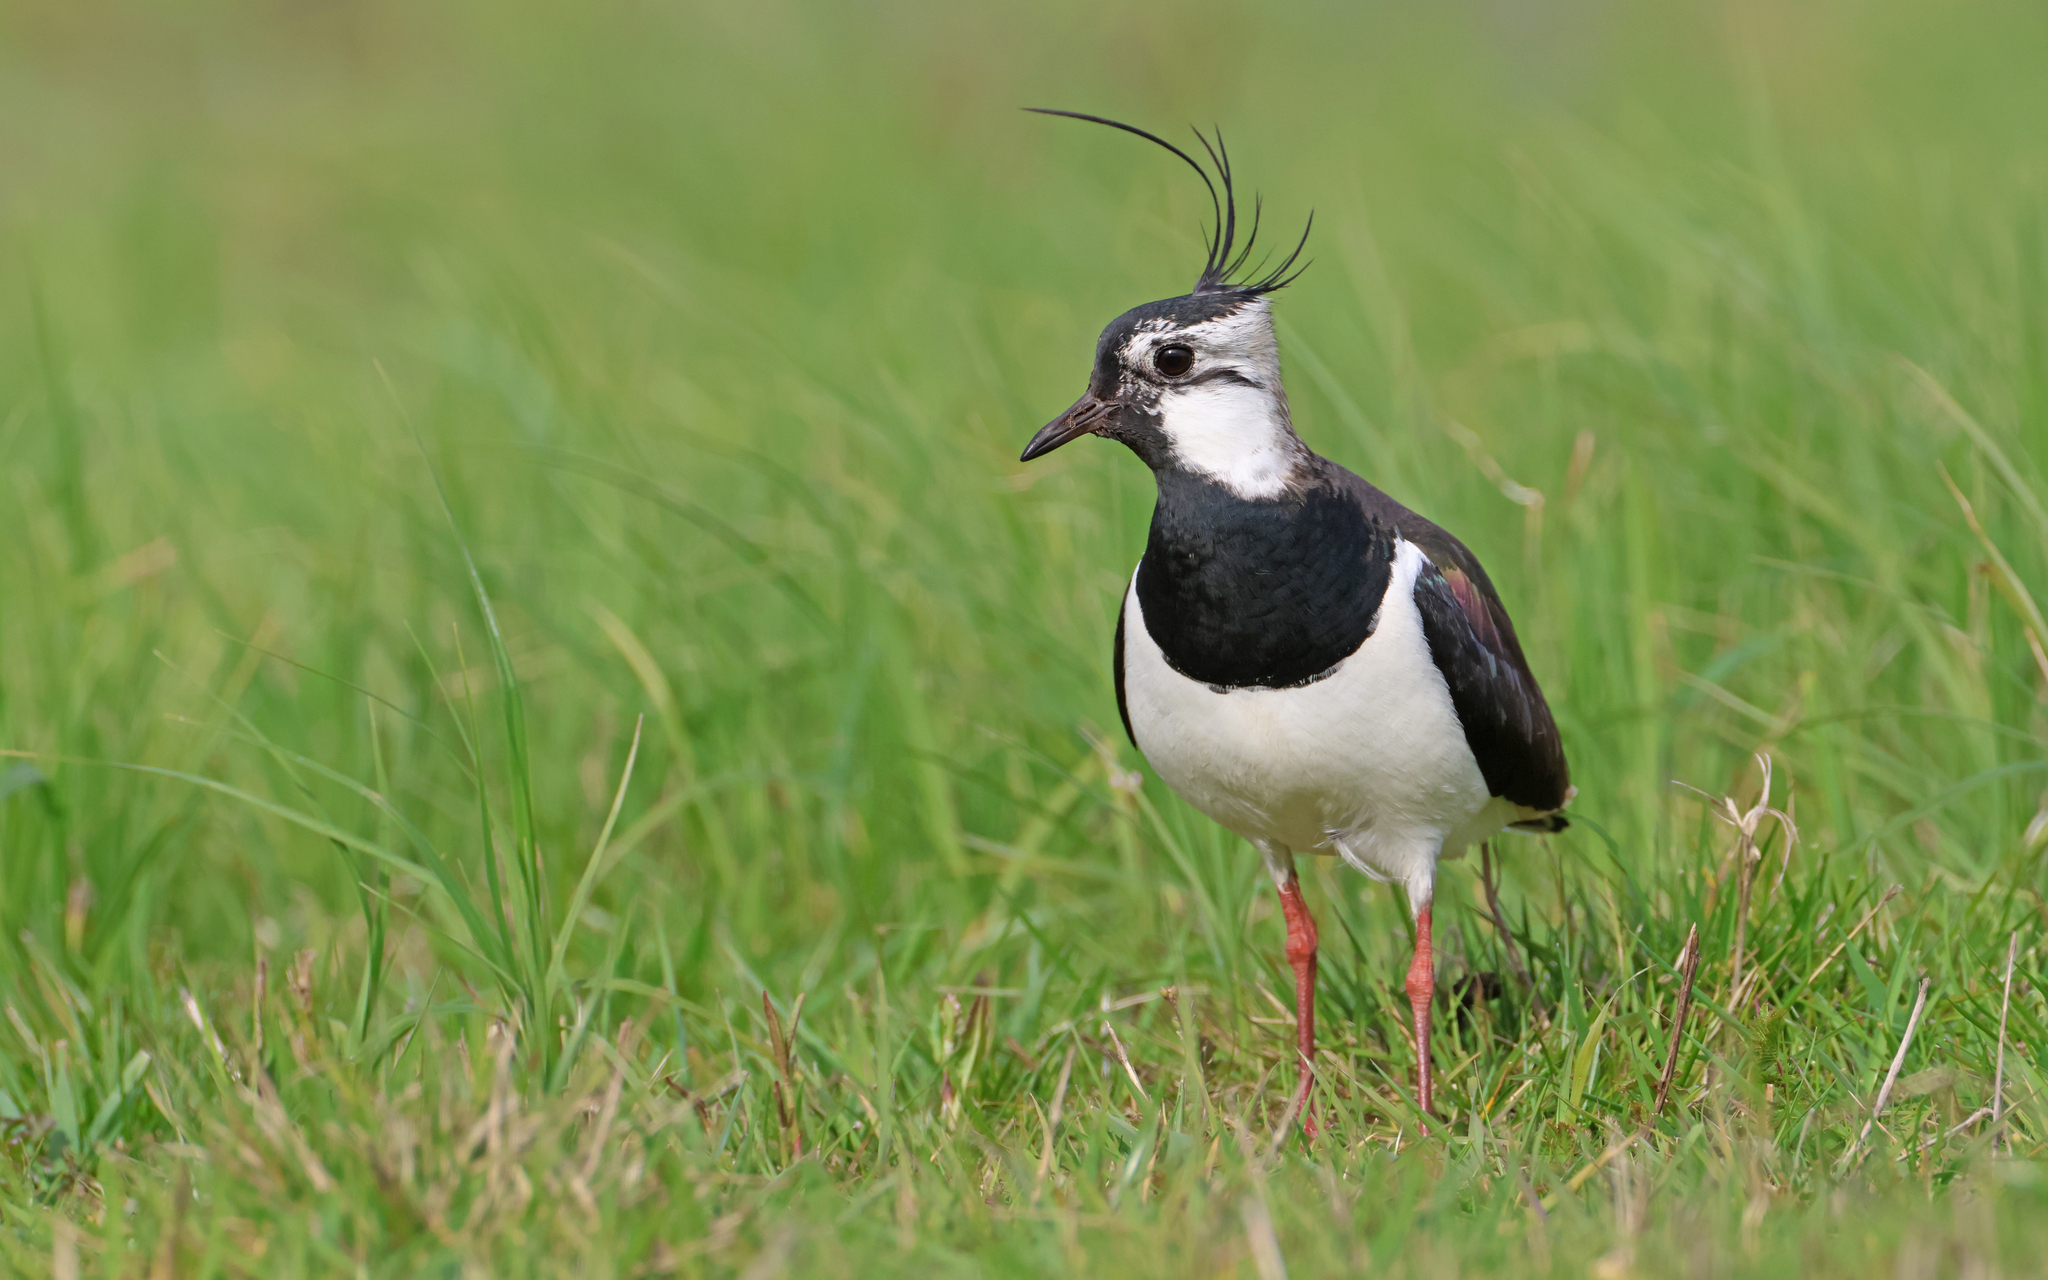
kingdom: Animalia
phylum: Chordata
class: Aves
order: Charadriiformes
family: Charadriidae
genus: Vanellus
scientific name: Vanellus vanellus
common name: Northern lapwing
